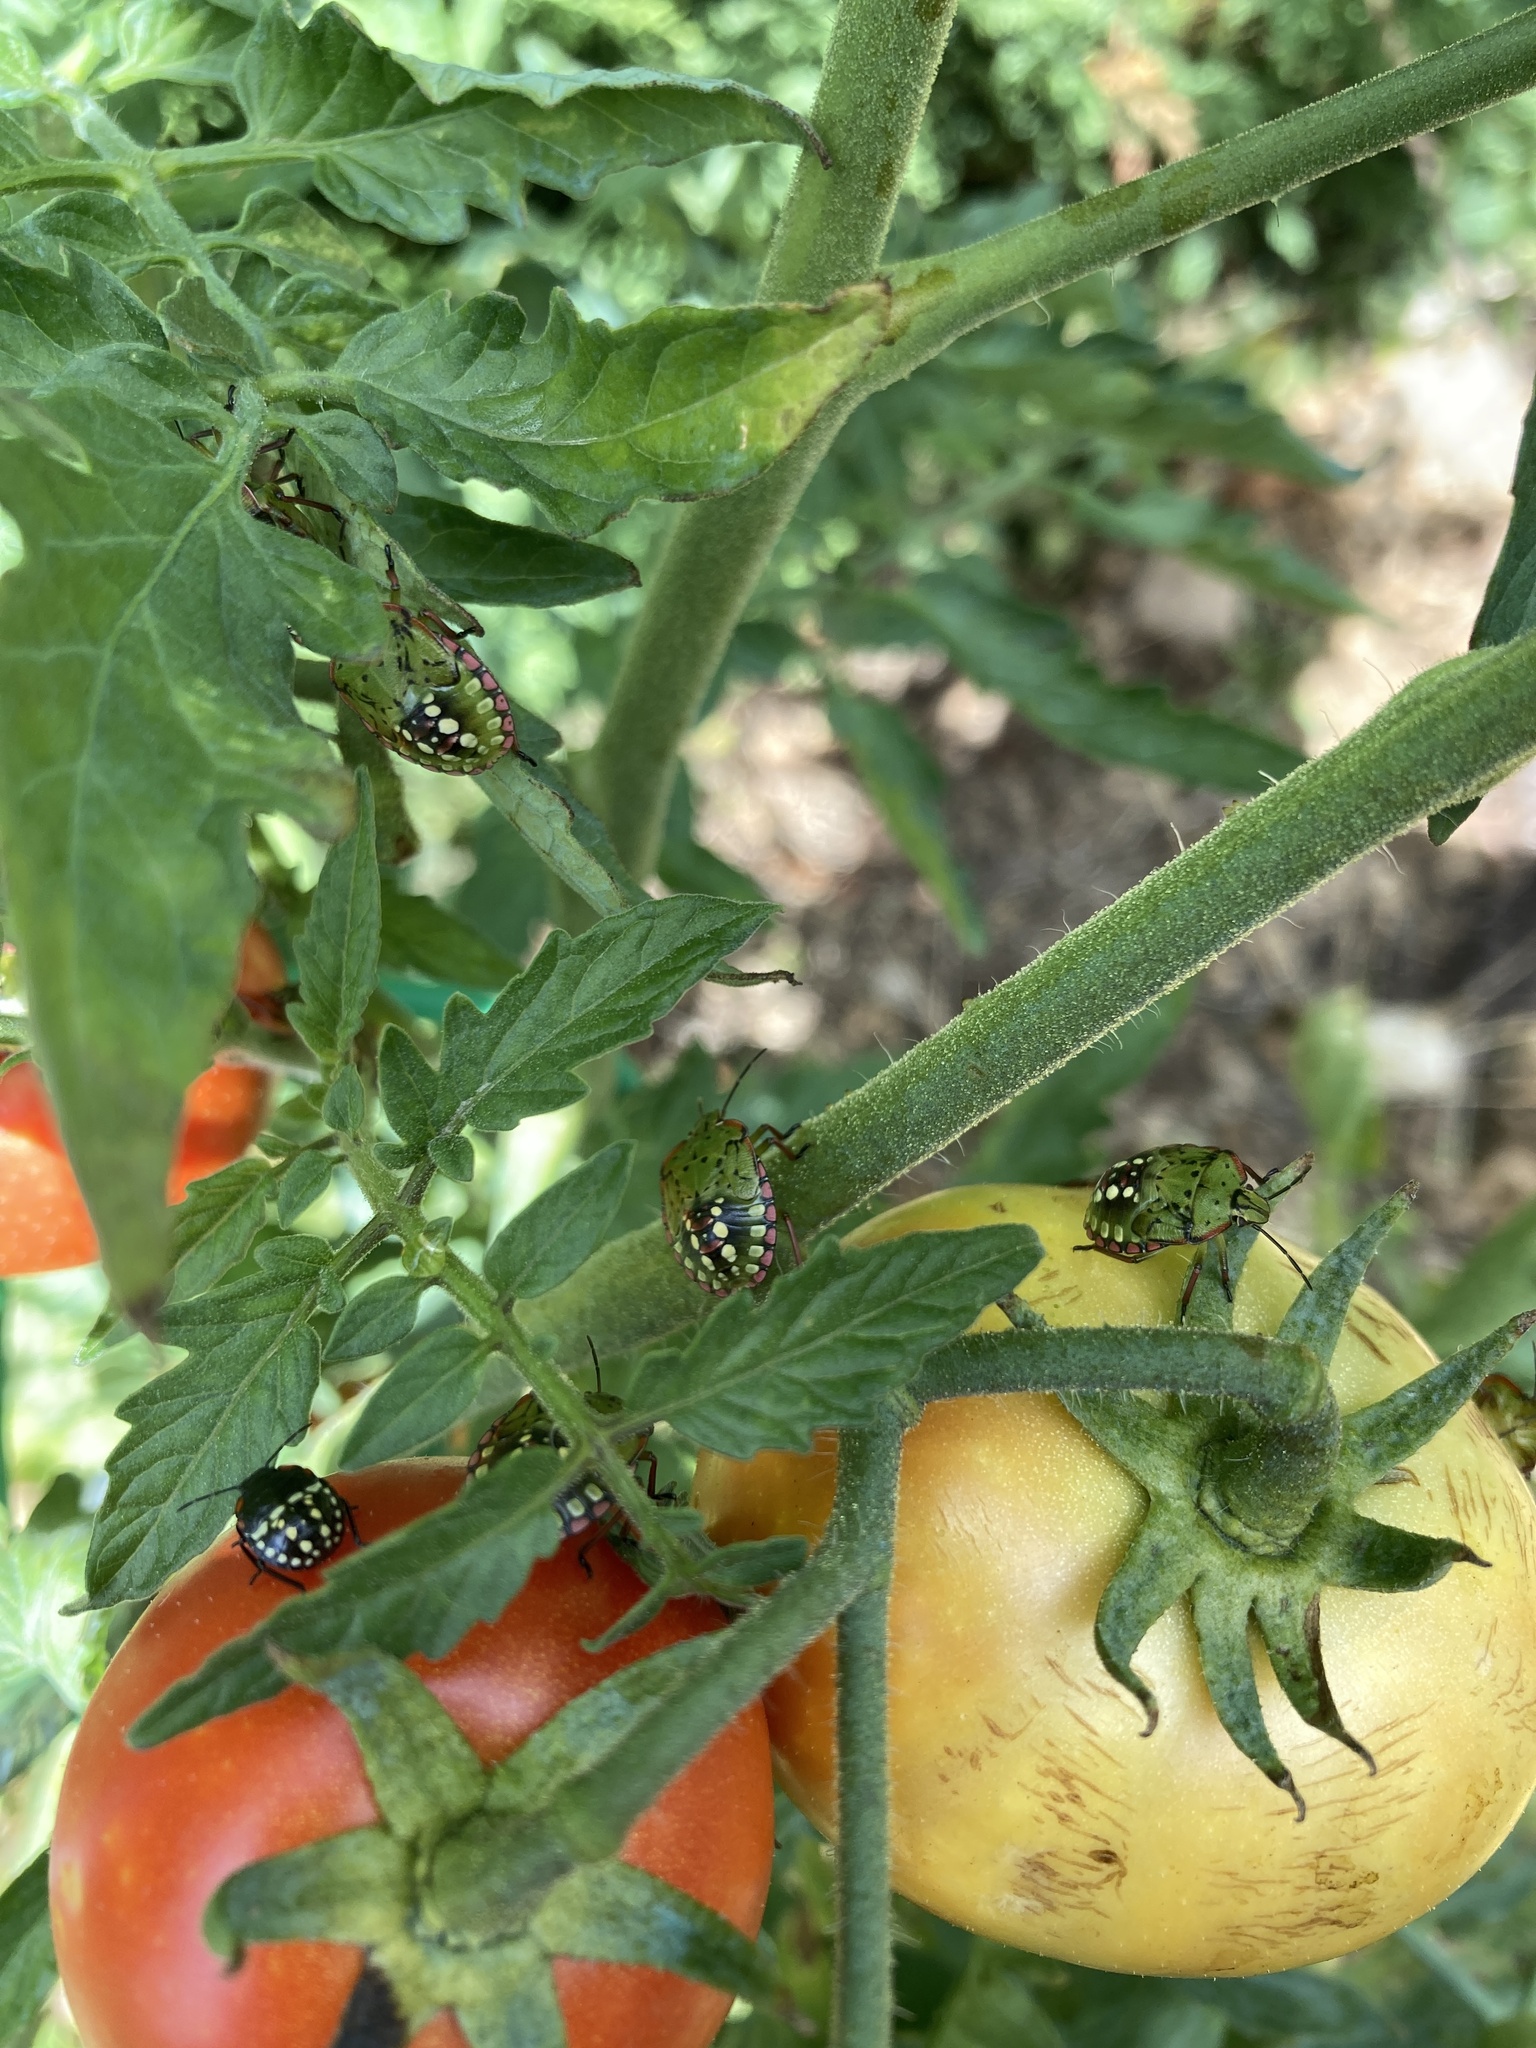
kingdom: Animalia
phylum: Arthropoda
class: Insecta
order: Hemiptera
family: Pentatomidae
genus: Nezara
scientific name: Nezara viridula
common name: Southern green stink bug
